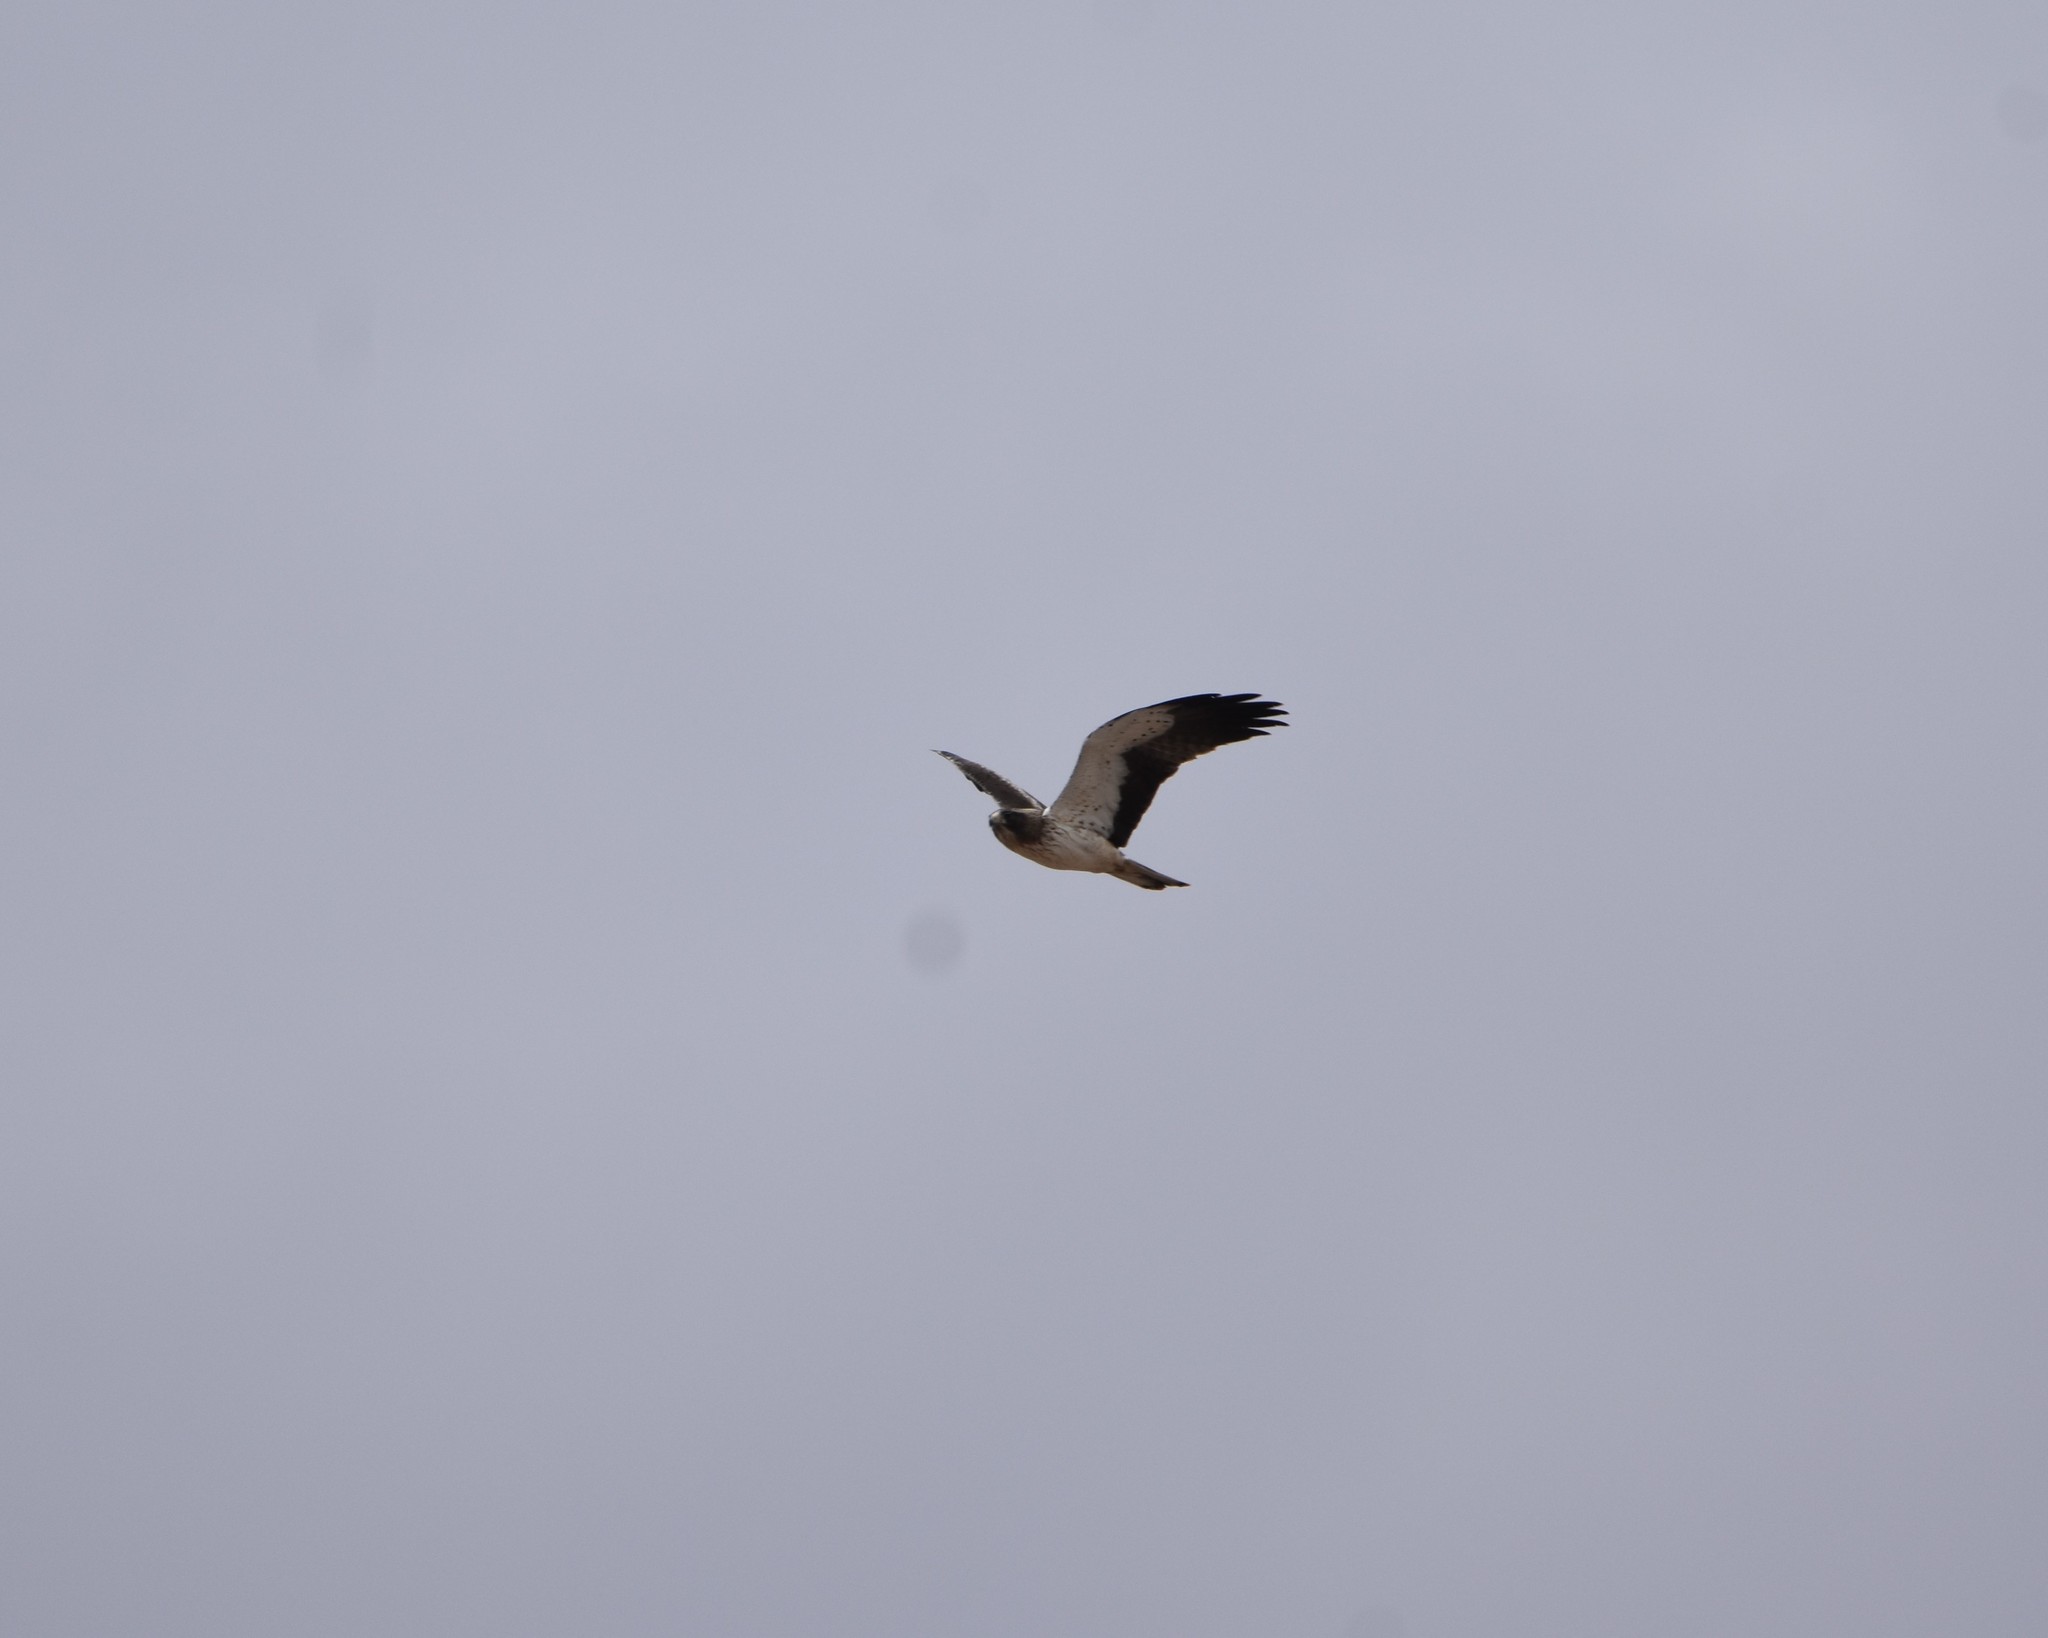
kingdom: Animalia
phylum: Chordata
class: Aves
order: Accipitriformes
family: Accipitridae
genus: Hieraaetus
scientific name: Hieraaetus pennatus
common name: Booted eagle
